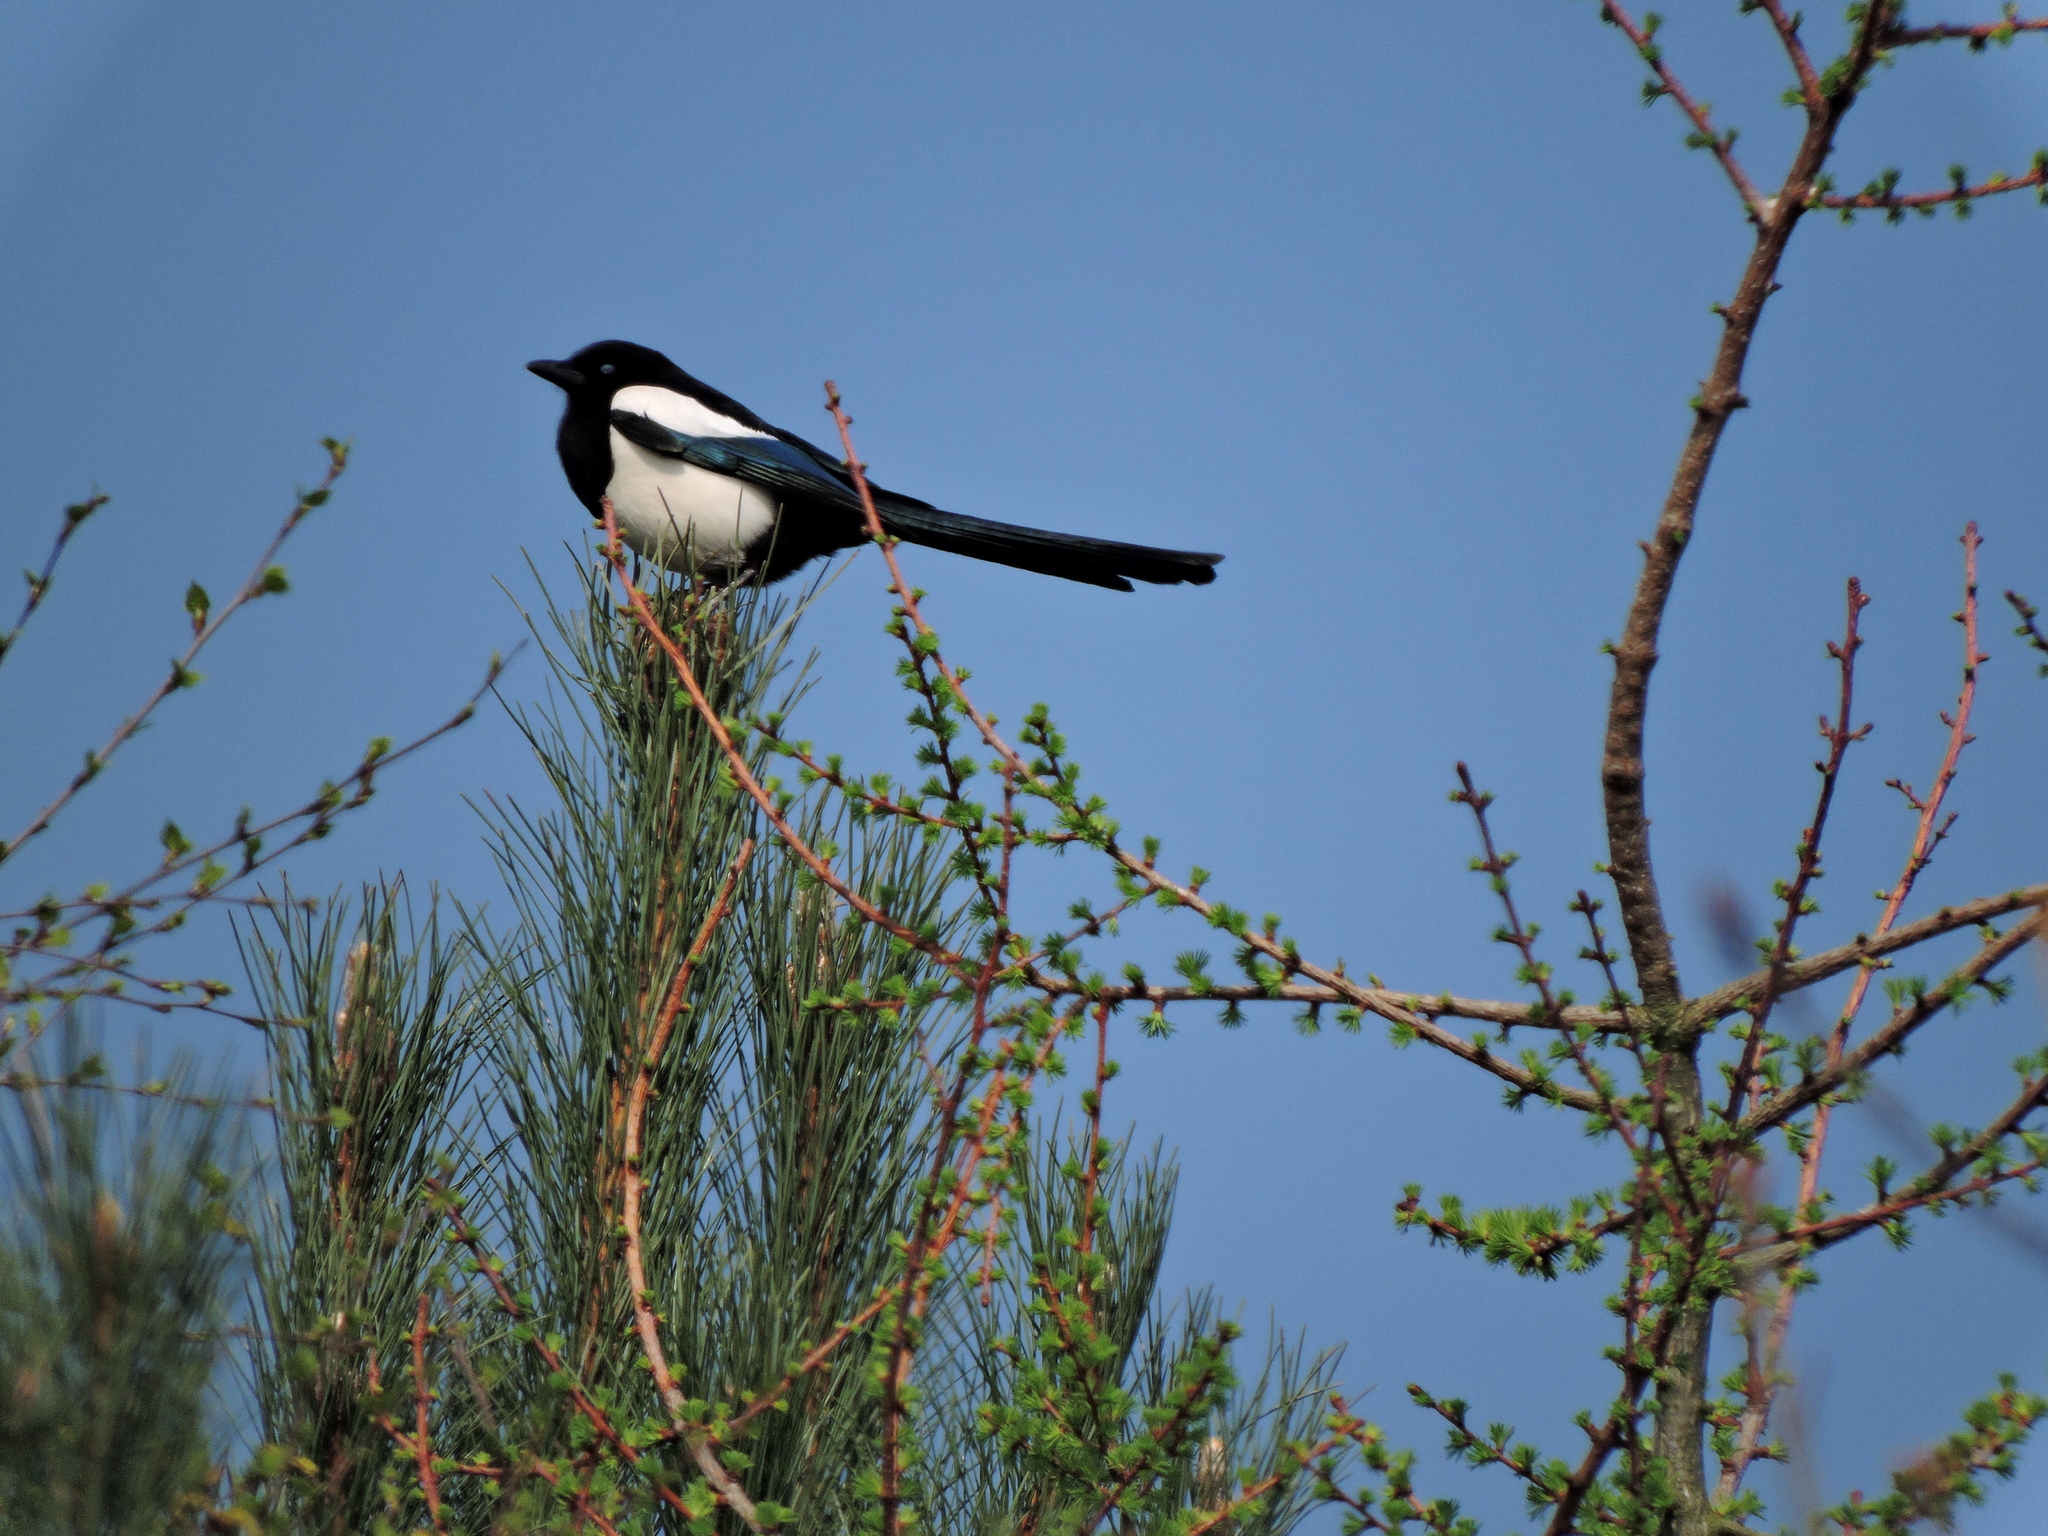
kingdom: Animalia
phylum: Chordata
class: Aves
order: Passeriformes
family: Corvidae
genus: Pica
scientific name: Pica pica
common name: Eurasian magpie
